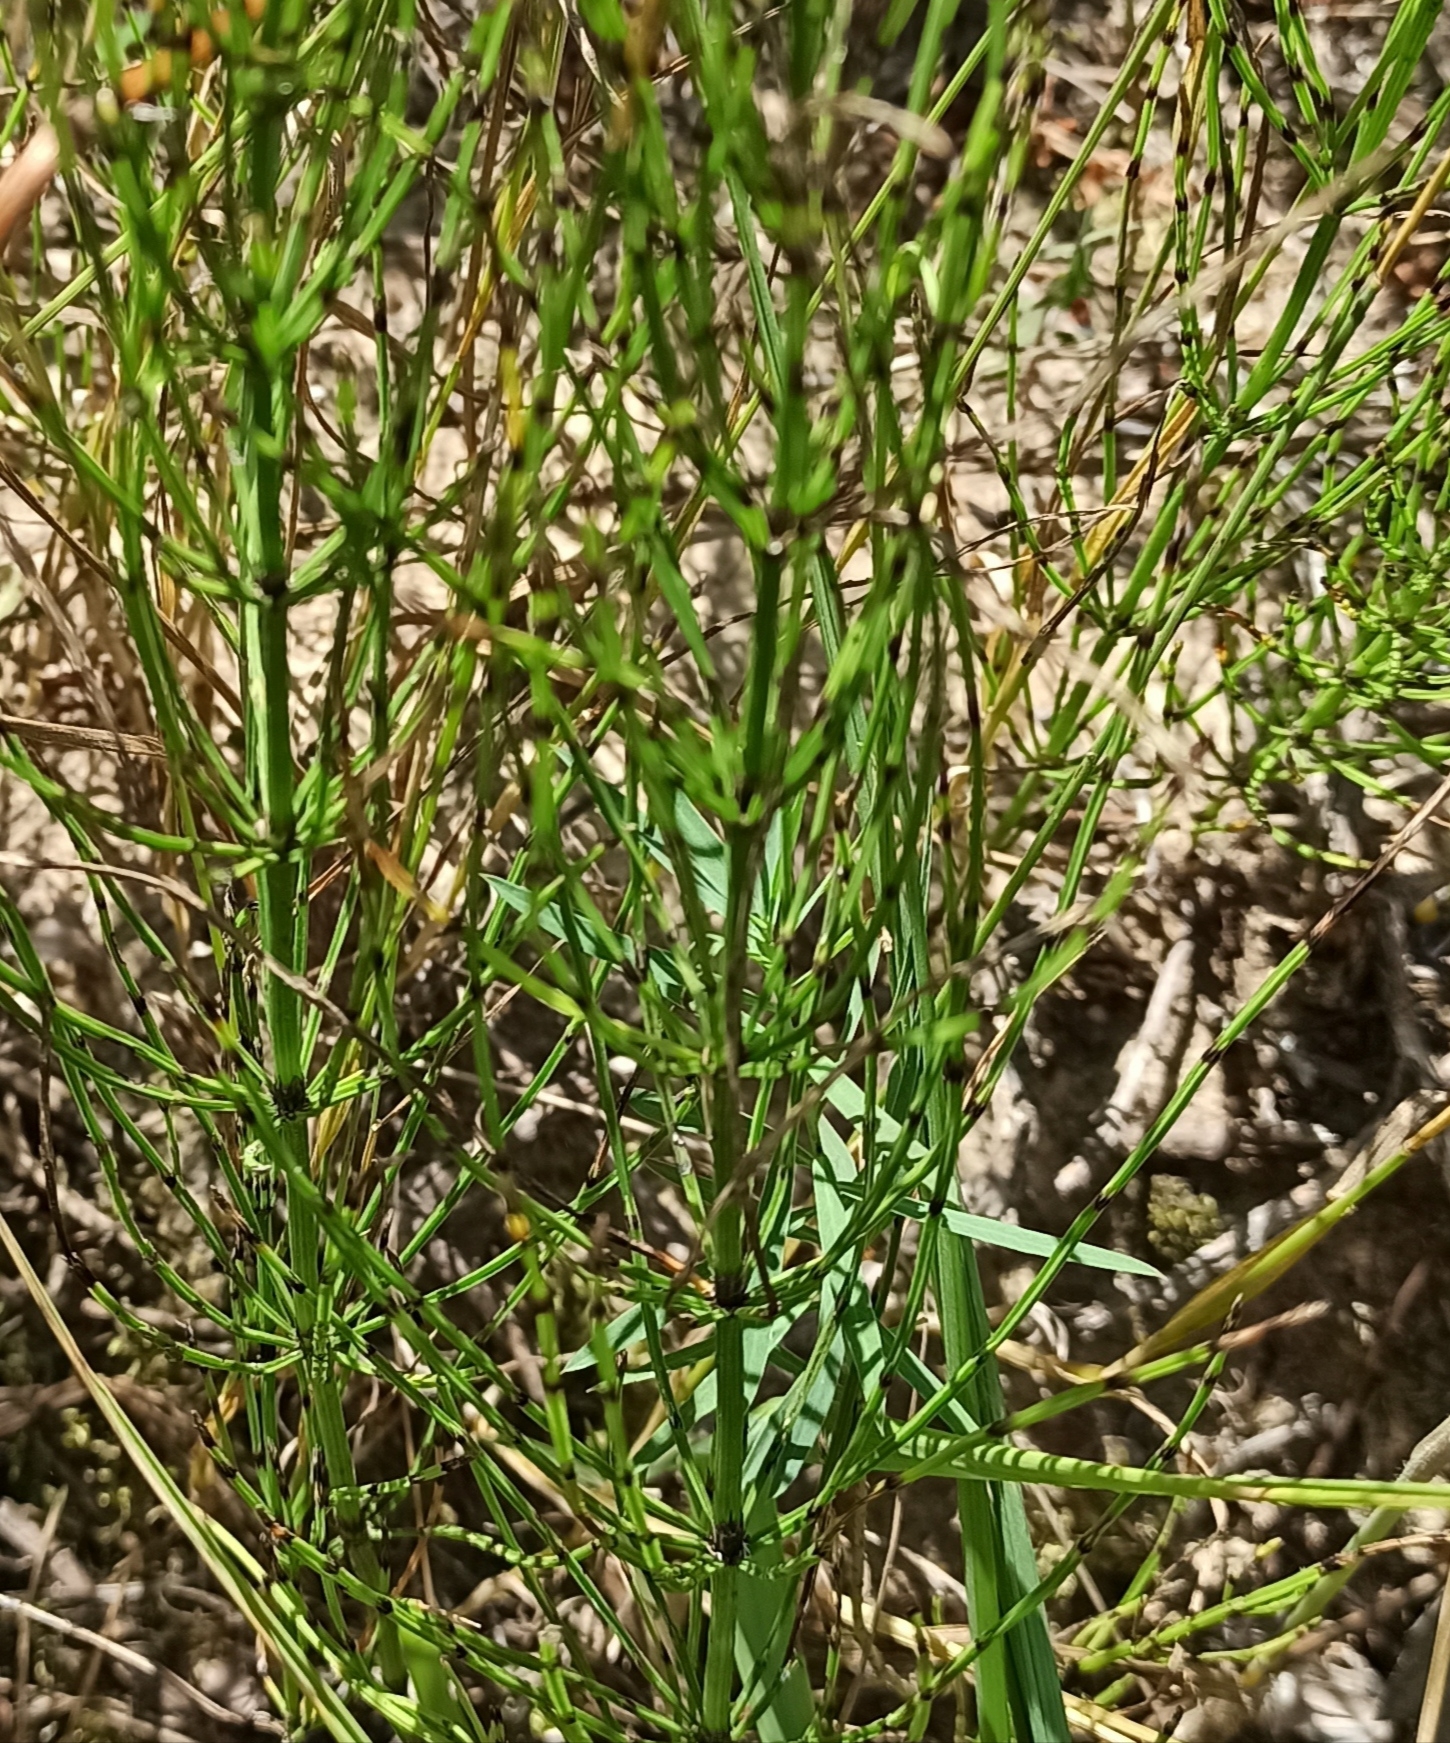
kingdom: Plantae
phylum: Tracheophyta
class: Polypodiopsida
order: Equisetales
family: Equisetaceae
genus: Equisetum
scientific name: Equisetum arvense
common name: Field horsetail
